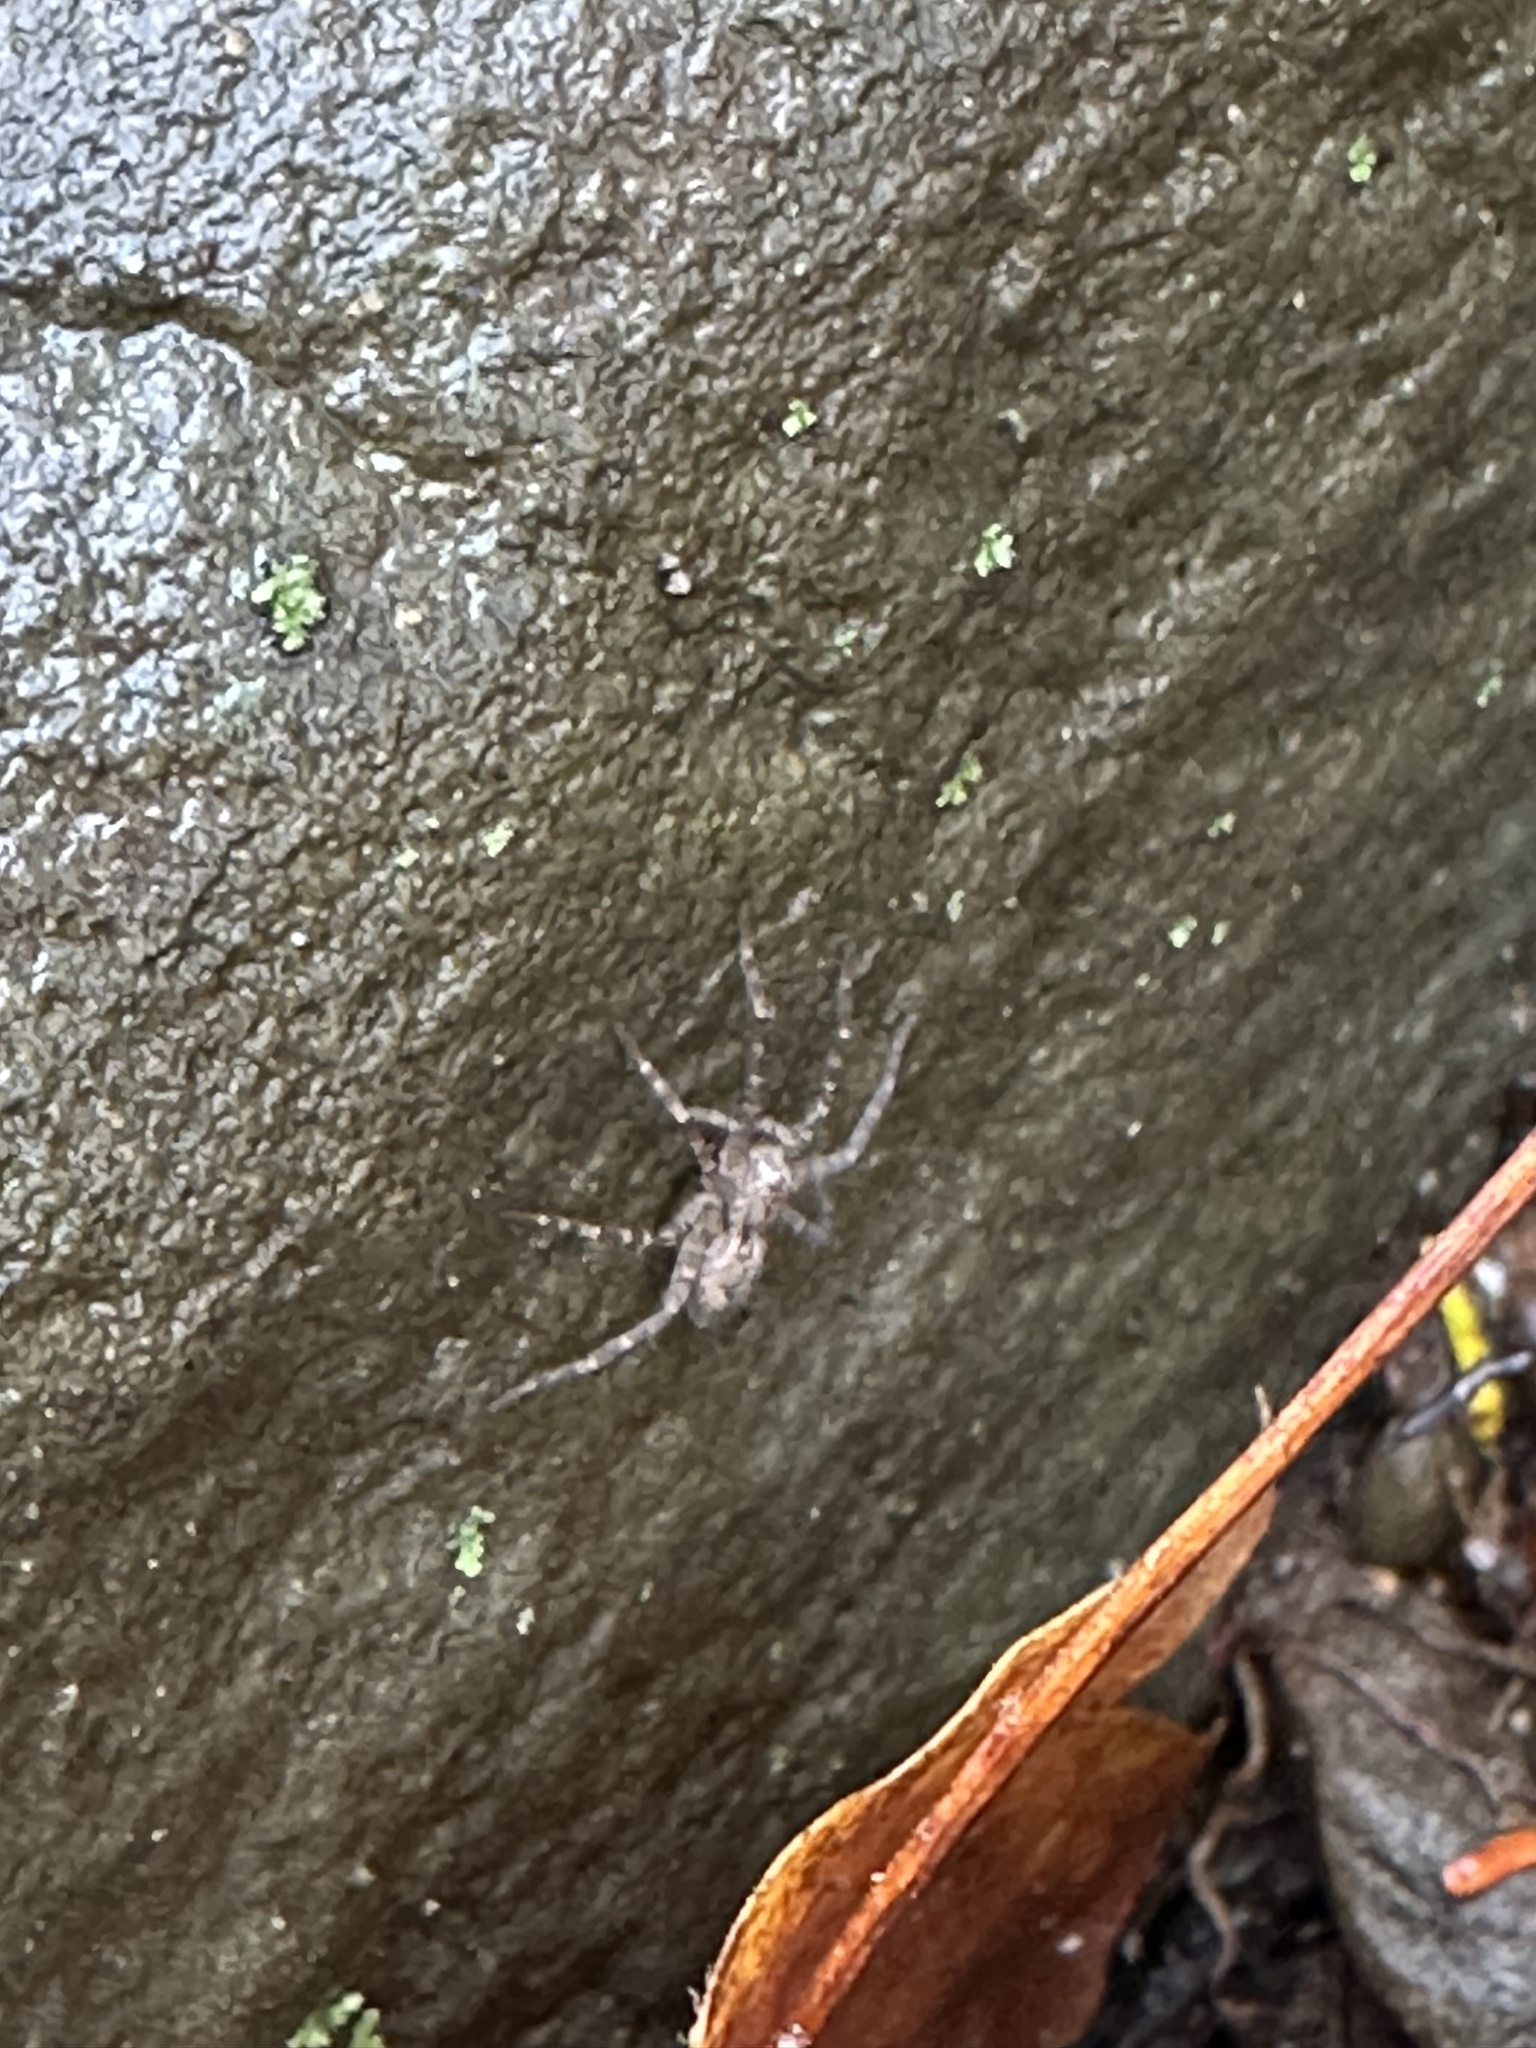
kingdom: Animalia
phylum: Arthropoda
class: Arachnida
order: Araneae
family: Pisauridae
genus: Dolomedes
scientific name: Dolomedes scriptus
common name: Striped fishing spider
